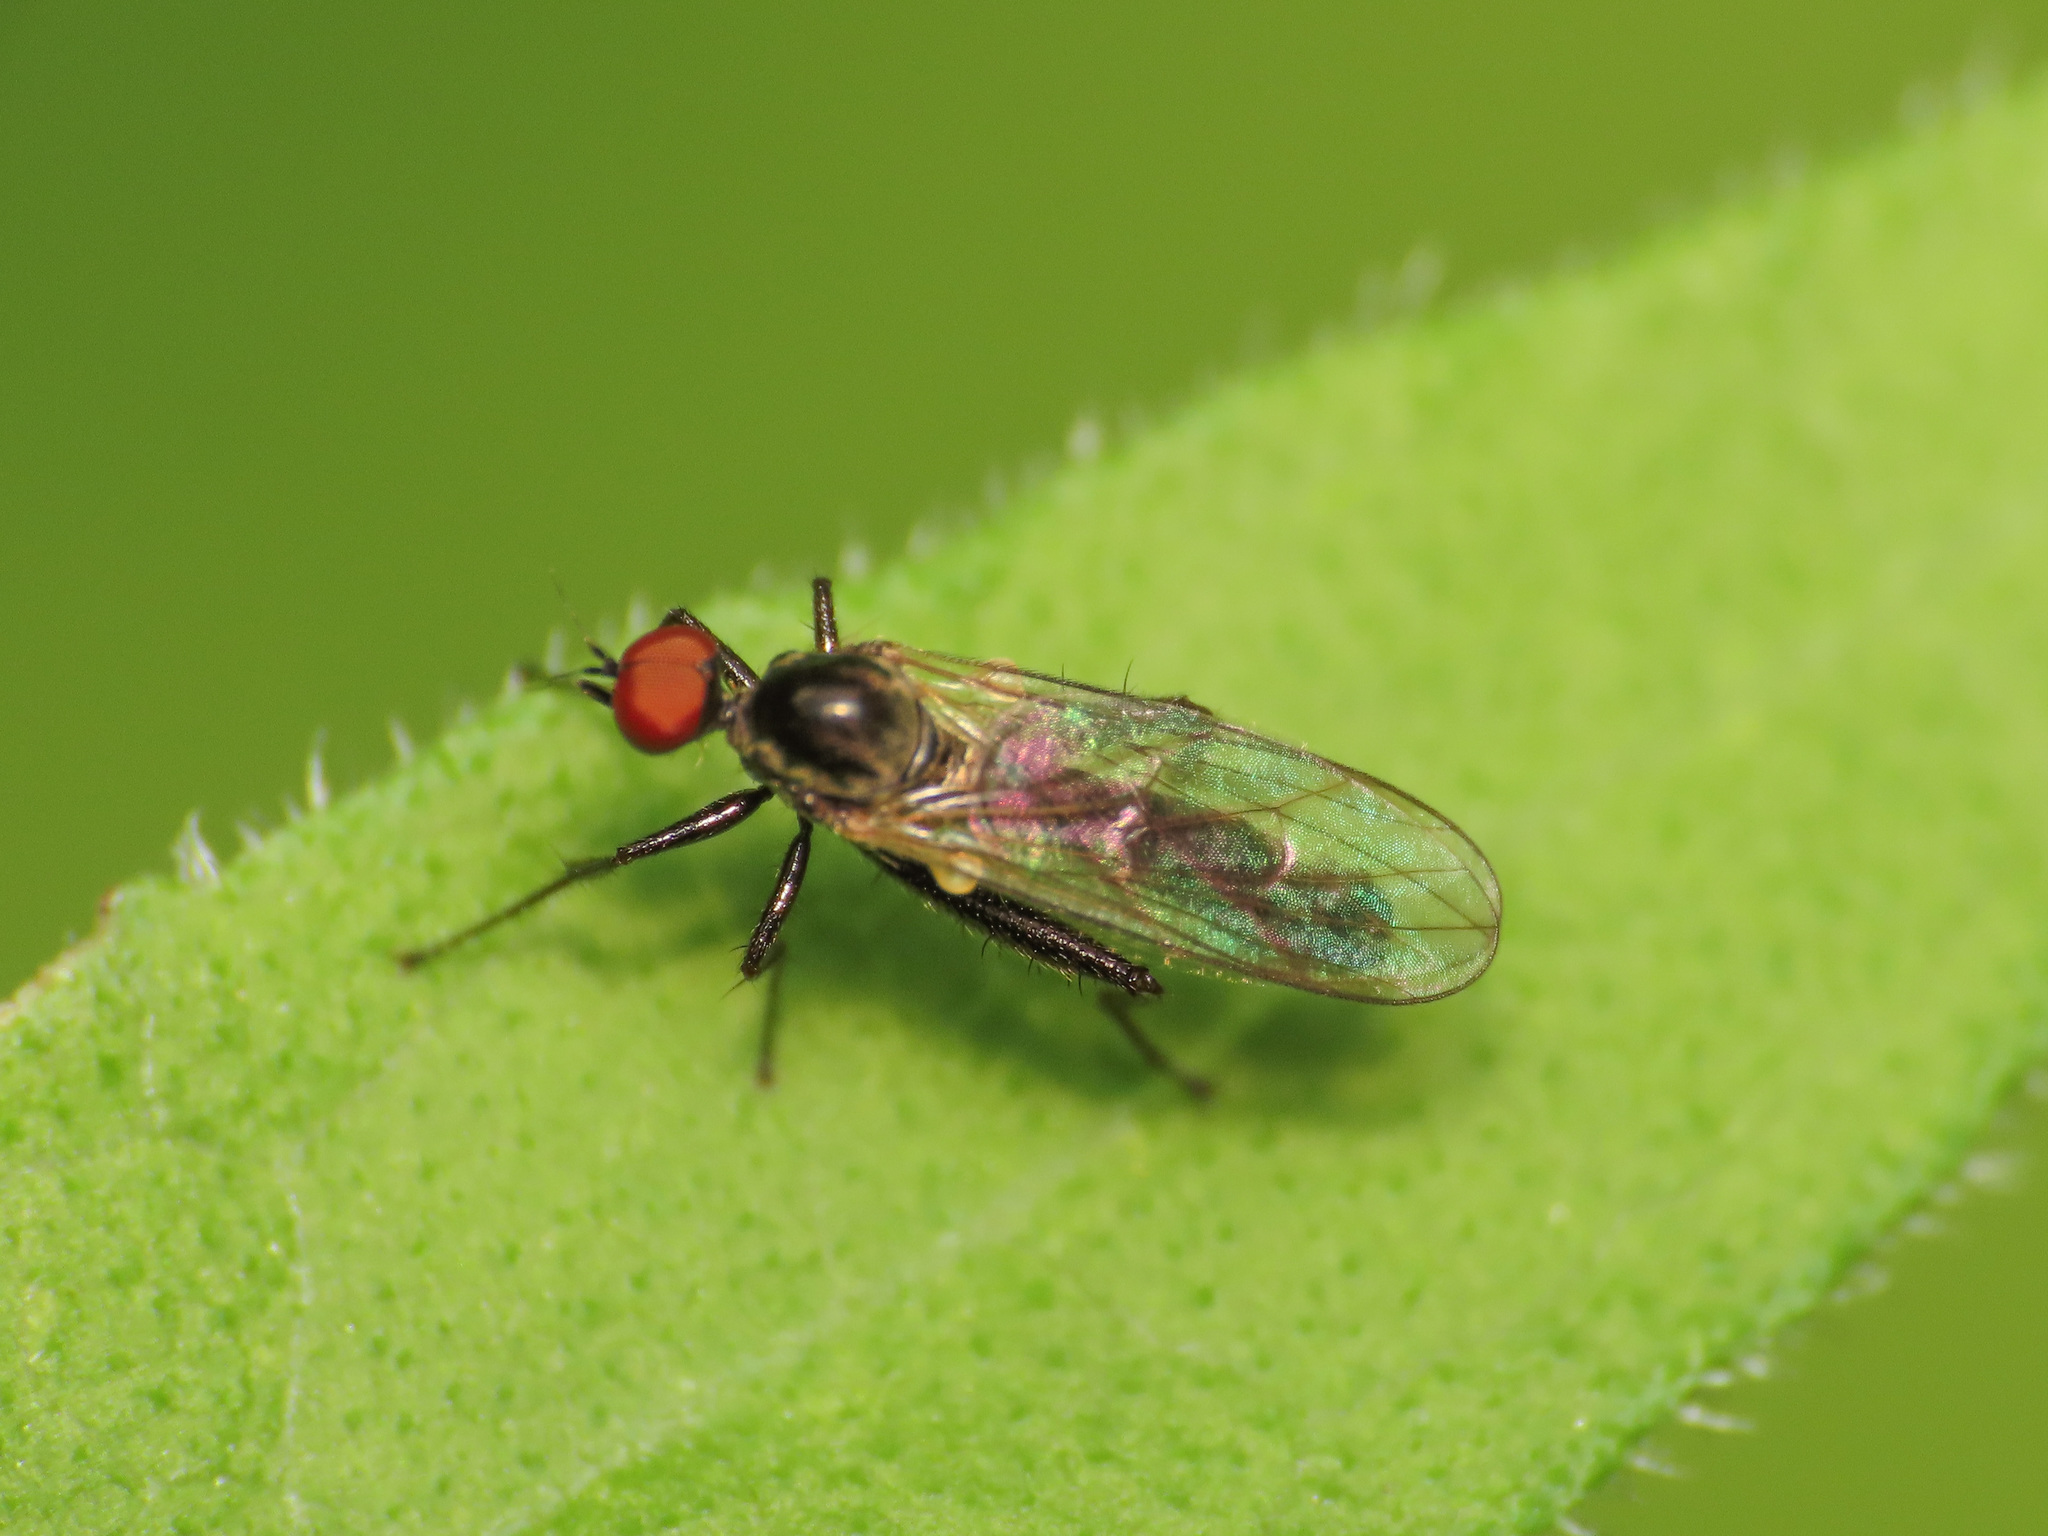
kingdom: Animalia
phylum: Arthropoda
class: Insecta
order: Diptera
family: Hybotidae
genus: Hybos
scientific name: Hybos culiciformis
